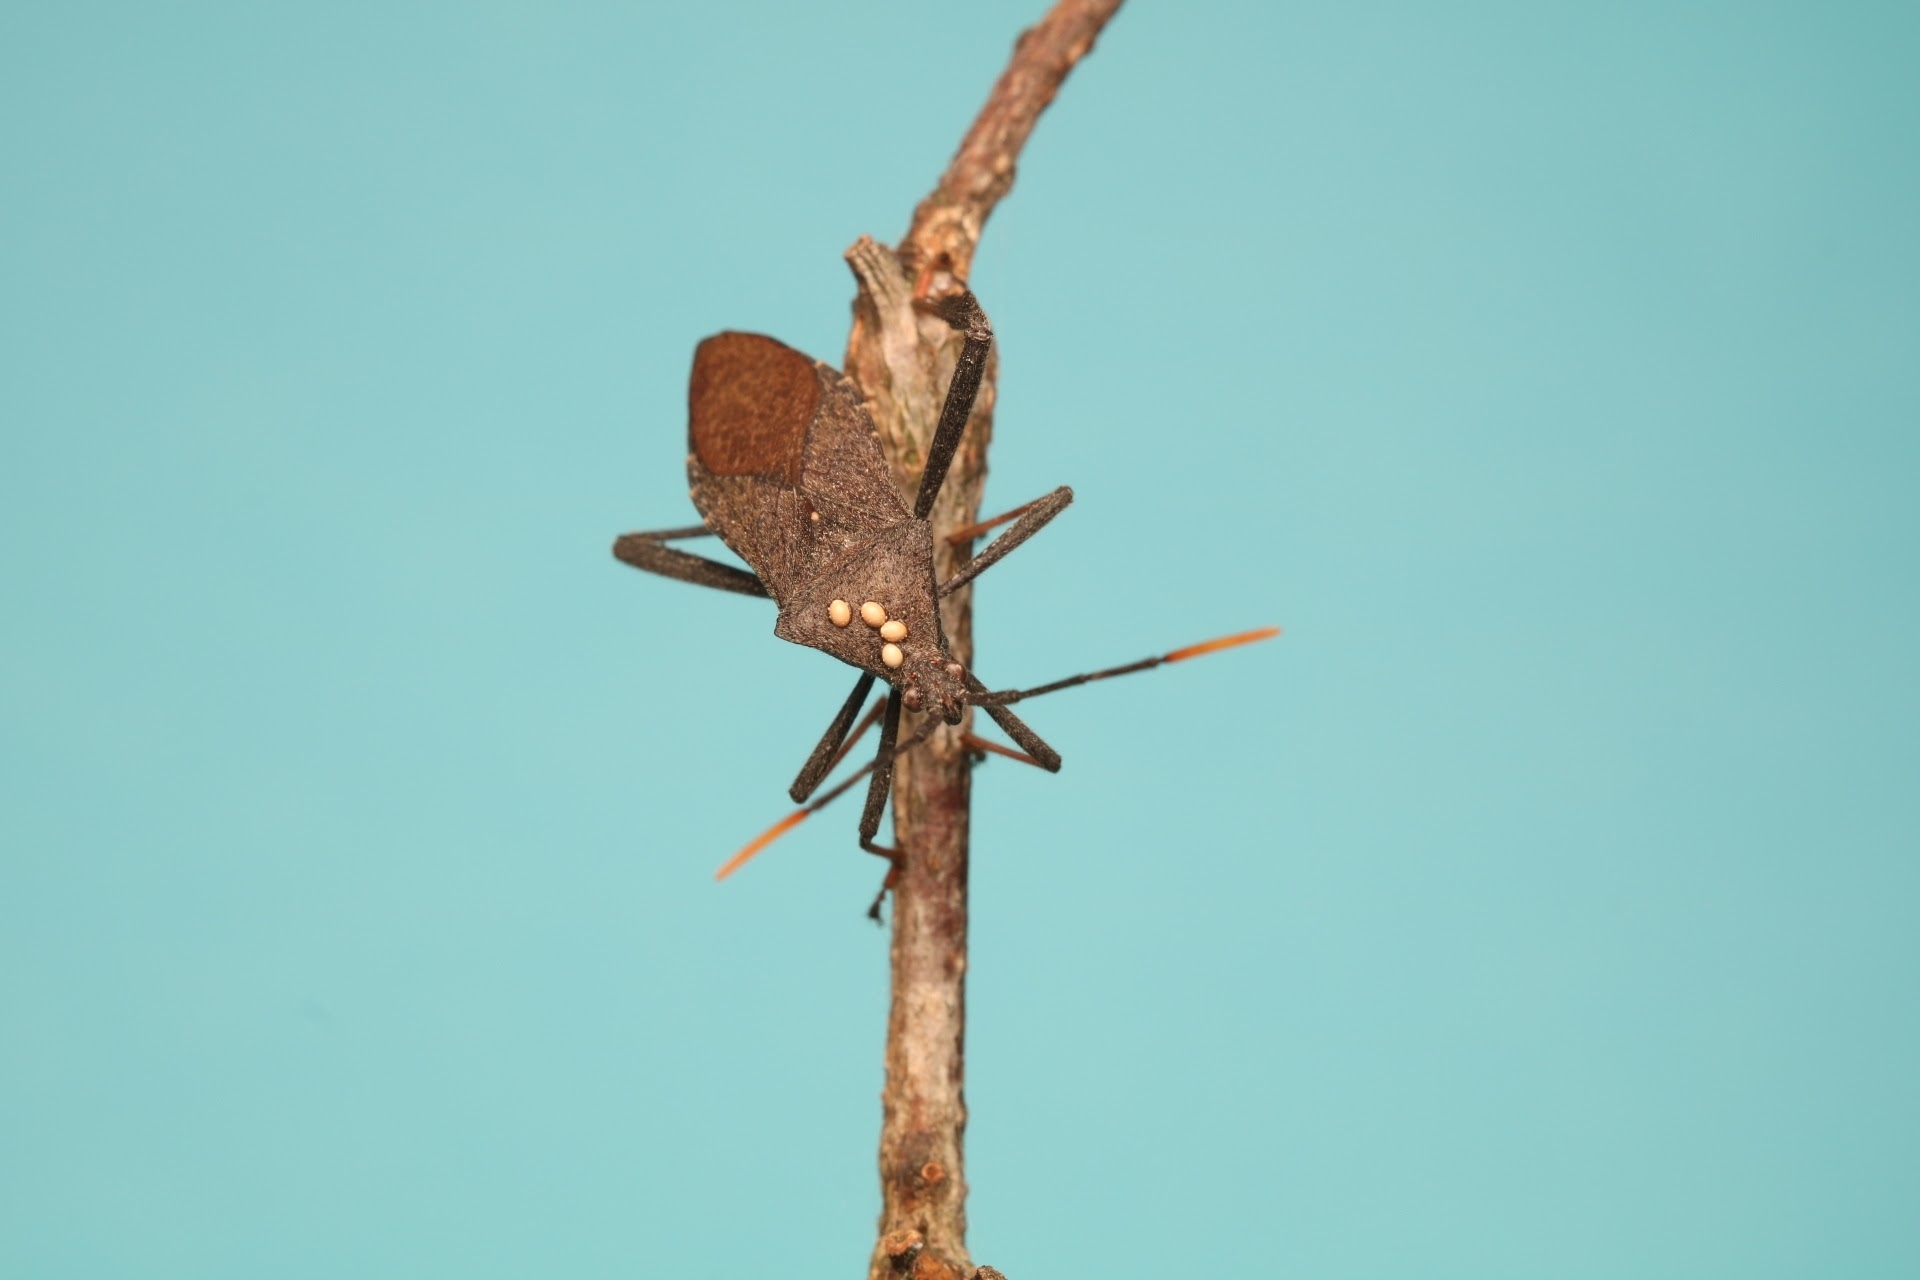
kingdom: Animalia
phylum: Arthropoda
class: Insecta
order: Hemiptera
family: Coreidae
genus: Acanthocephala
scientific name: Acanthocephala terminalis
